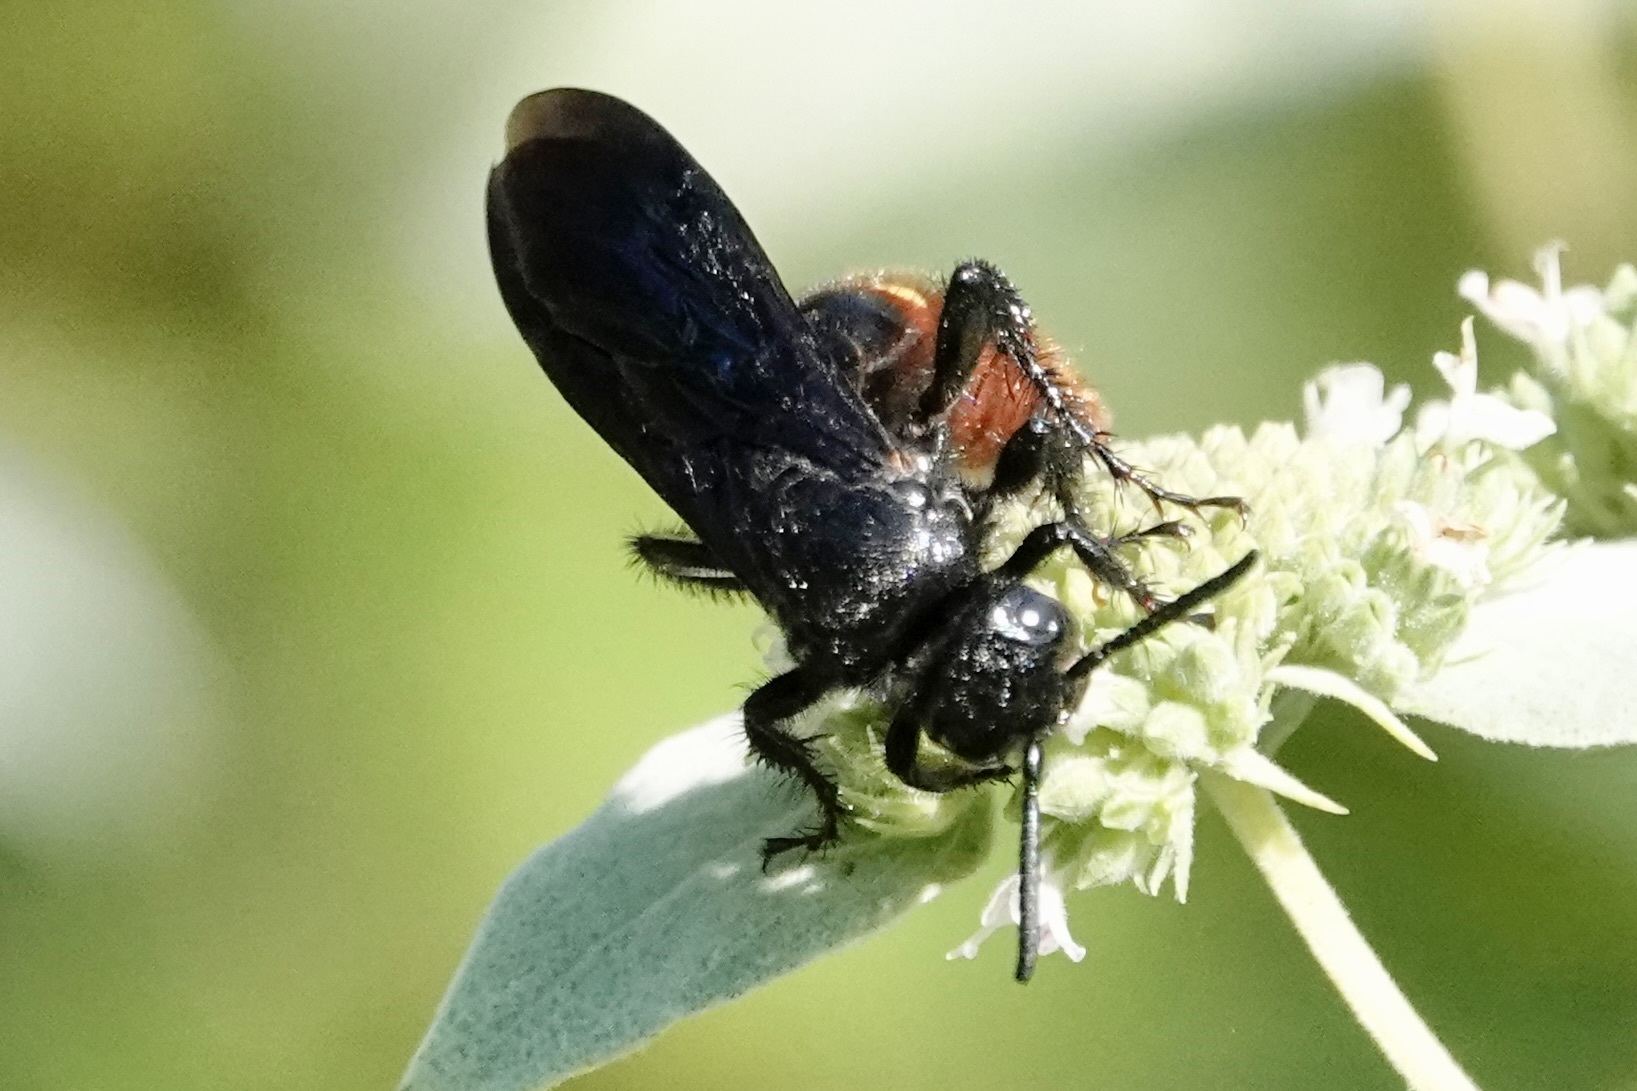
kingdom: Animalia
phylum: Arthropoda
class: Insecta
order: Hymenoptera
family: Scoliidae
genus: Scolia
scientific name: Scolia dubia
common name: Blue-winged scoliid wasp
